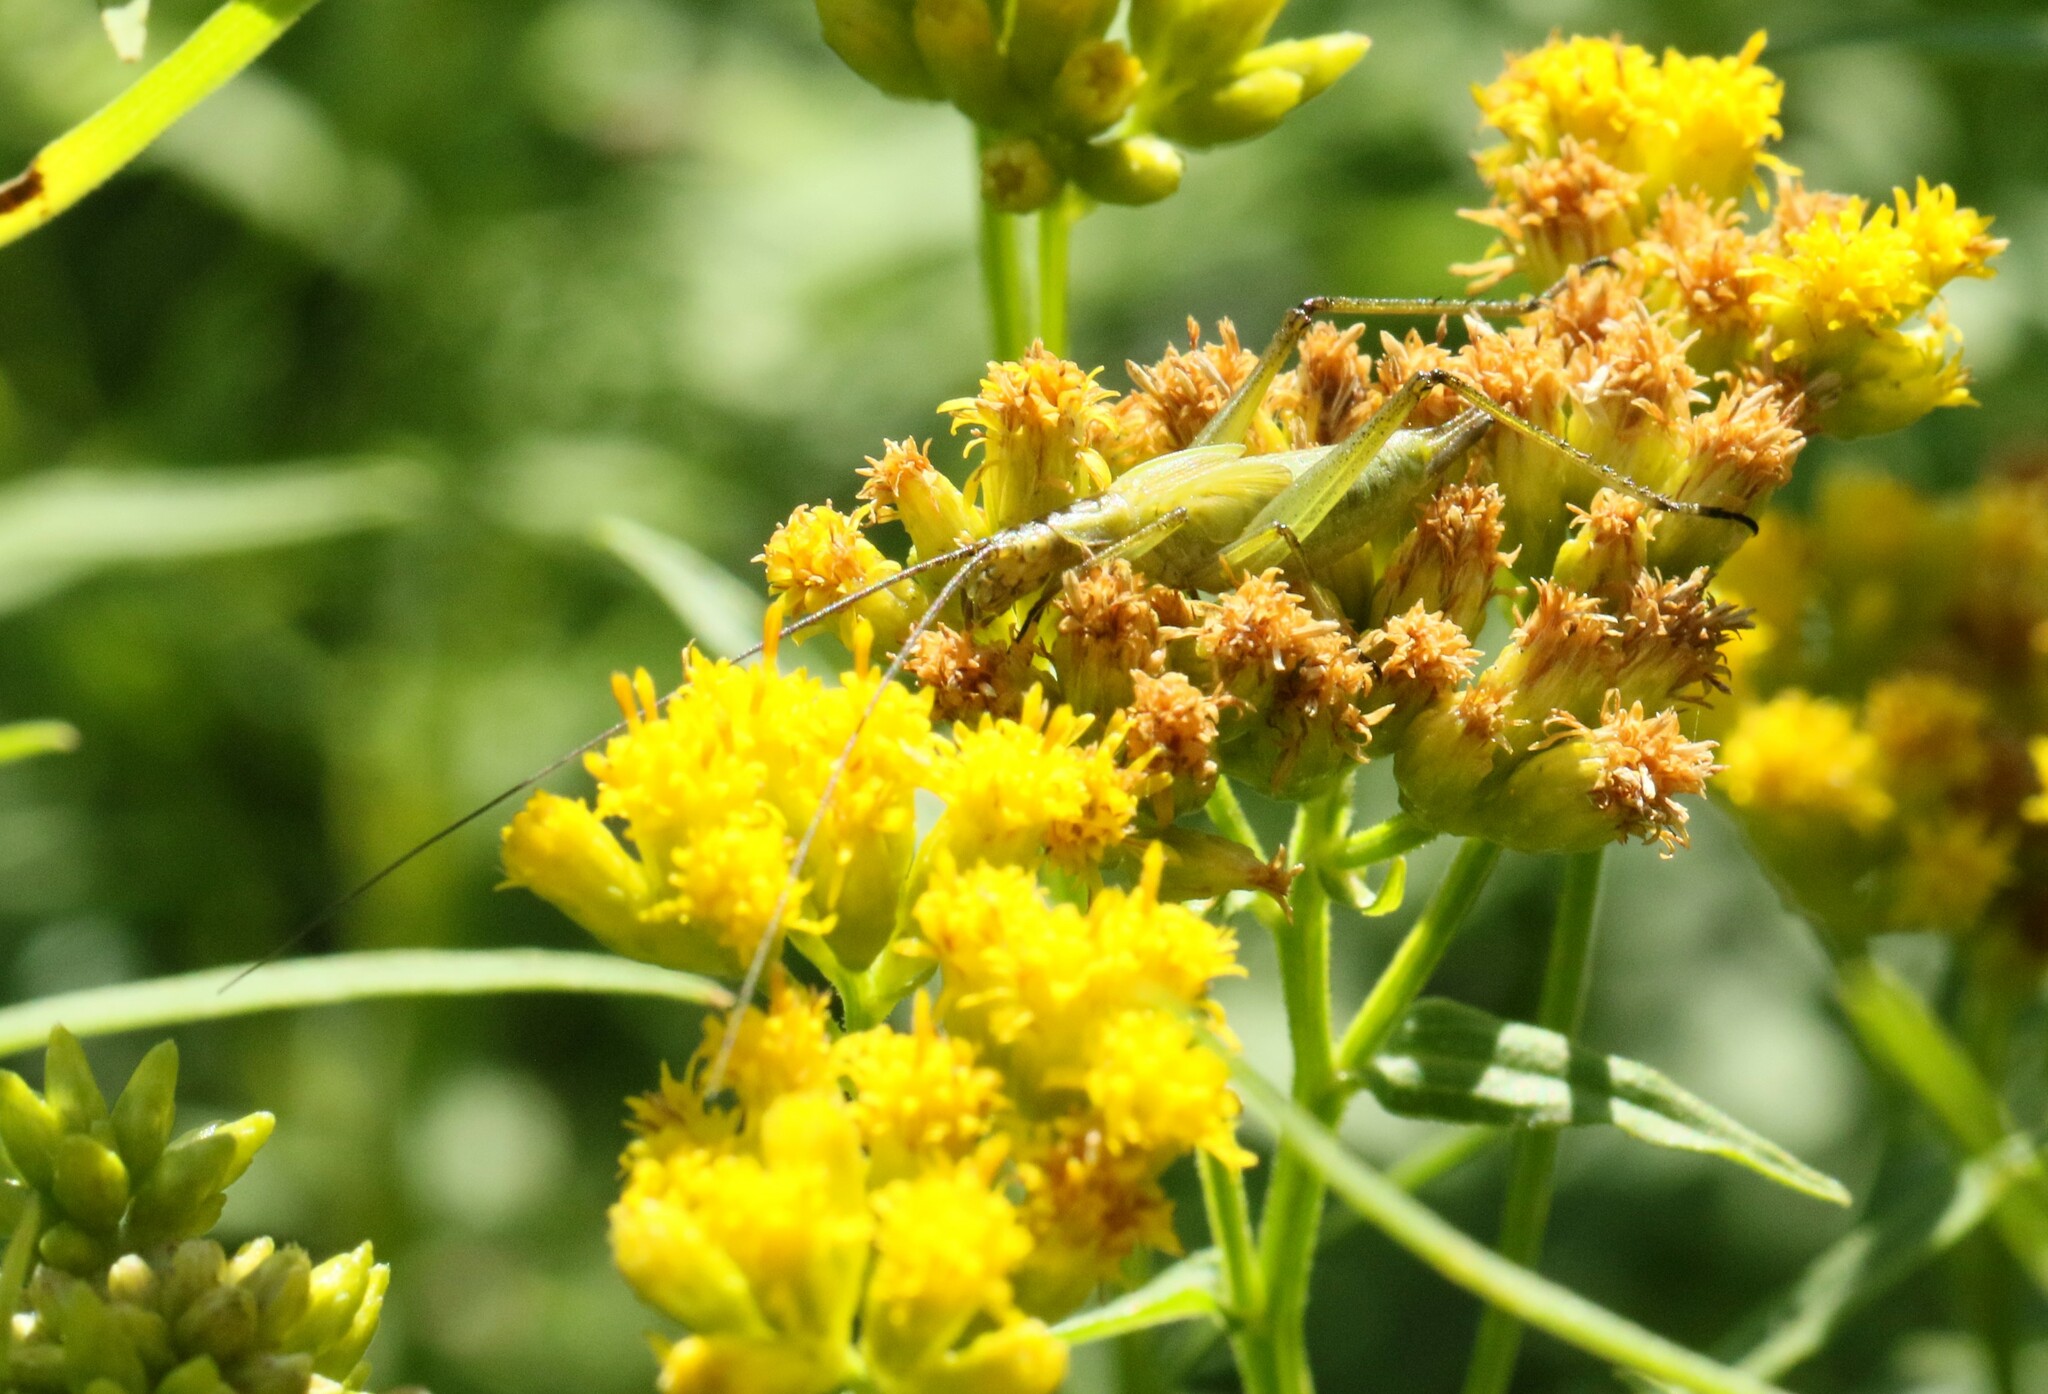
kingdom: Animalia
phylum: Arthropoda
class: Insecta
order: Orthoptera
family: Gryllidae
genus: Oecanthus
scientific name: Oecanthus nigricornis
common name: Black-horned tree cricket
